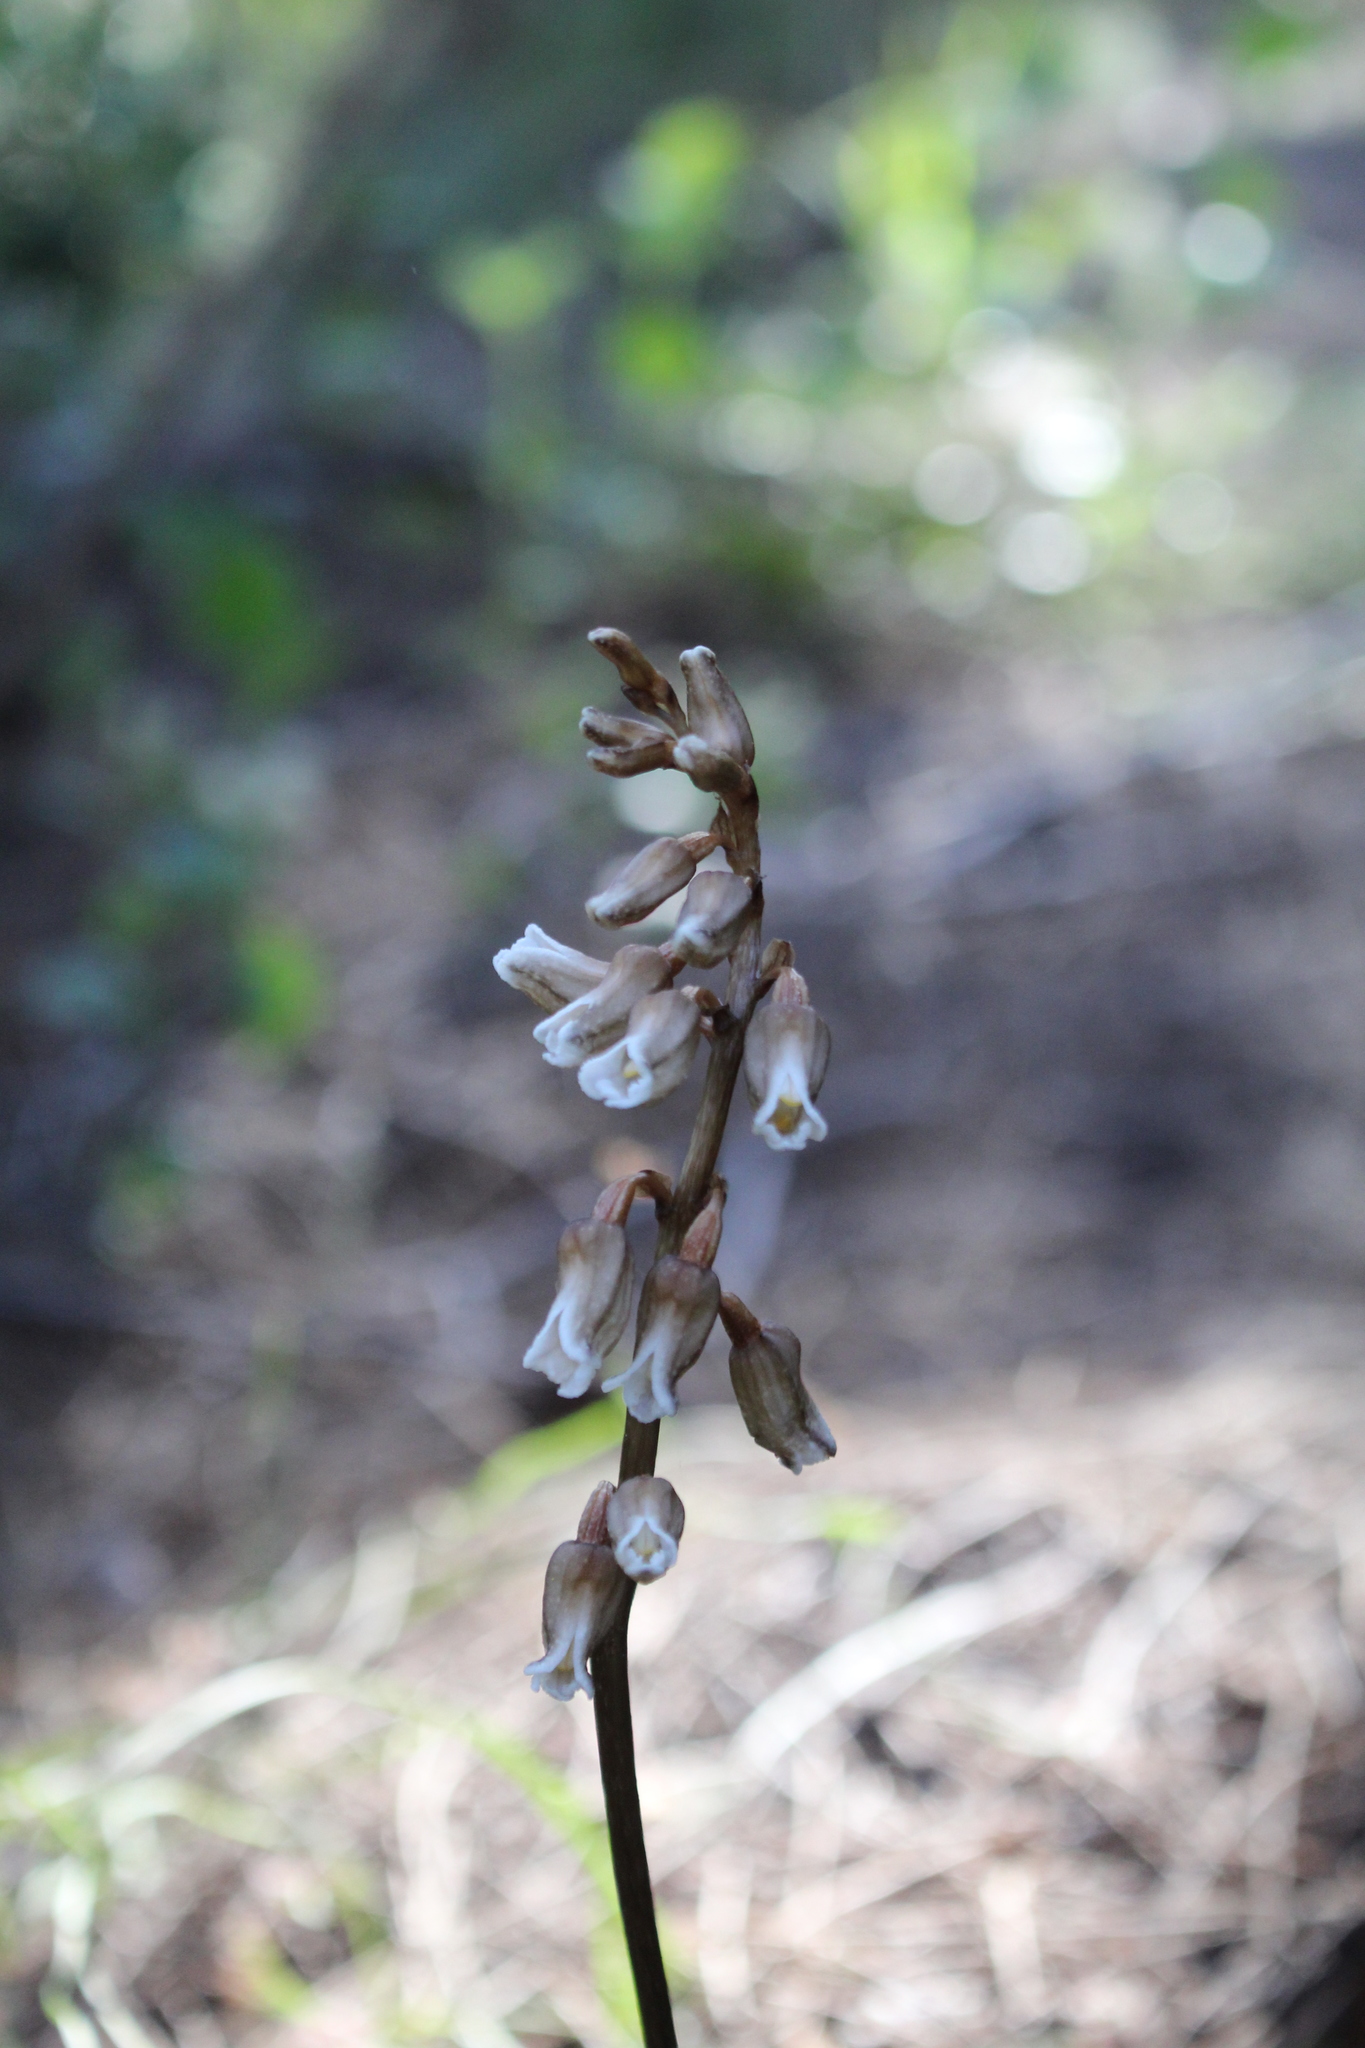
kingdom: Plantae
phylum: Tracheophyta
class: Liliopsida
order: Asparagales
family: Orchidaceae
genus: Gastrodia
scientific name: Gastrodia lacista
